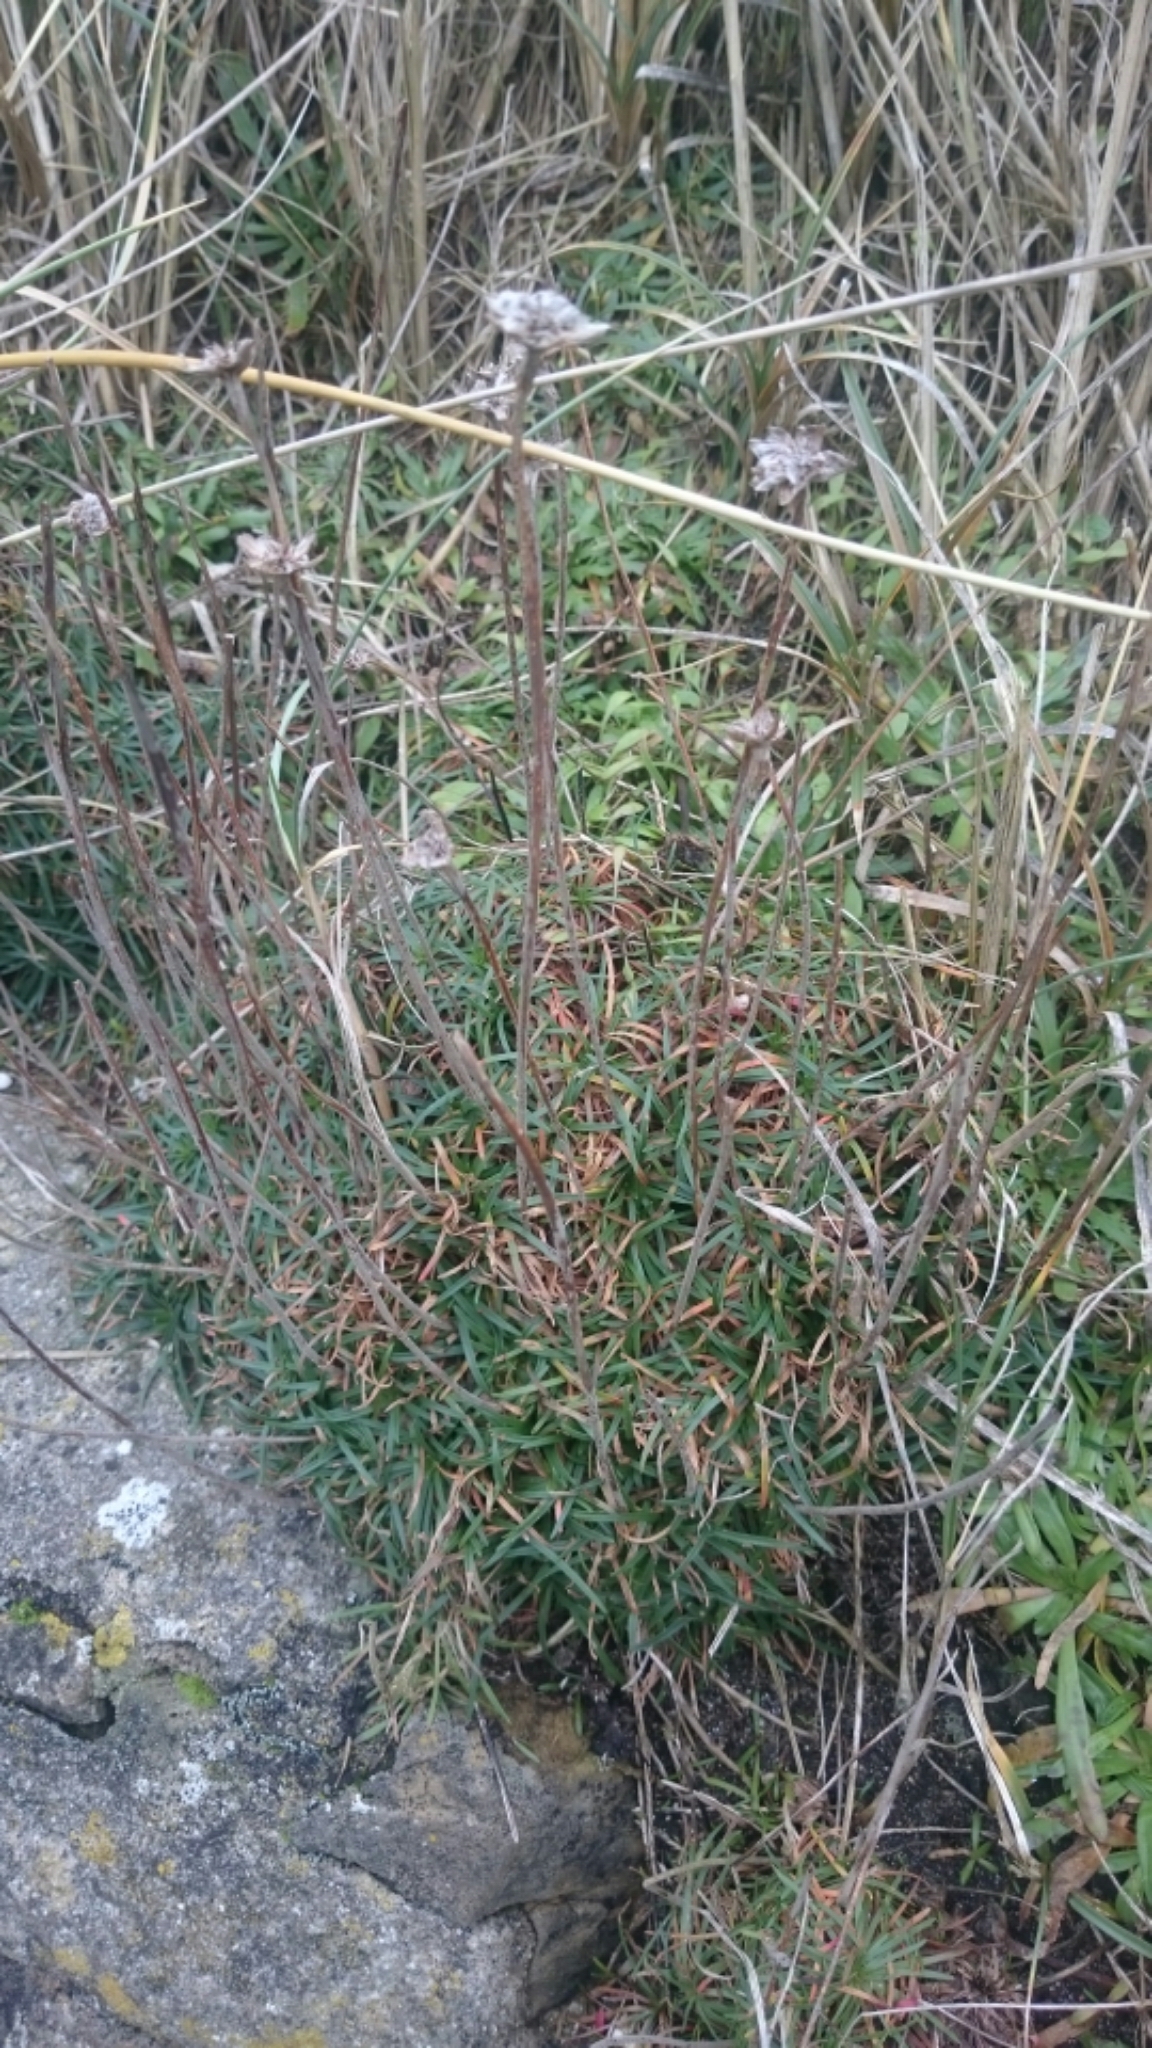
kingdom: Plantae
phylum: Tracheophyta
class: Magnoliopsida
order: Caryophyllales
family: Plumbaginaceae
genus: Armeria
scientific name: Armeria maritima
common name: Thrift
